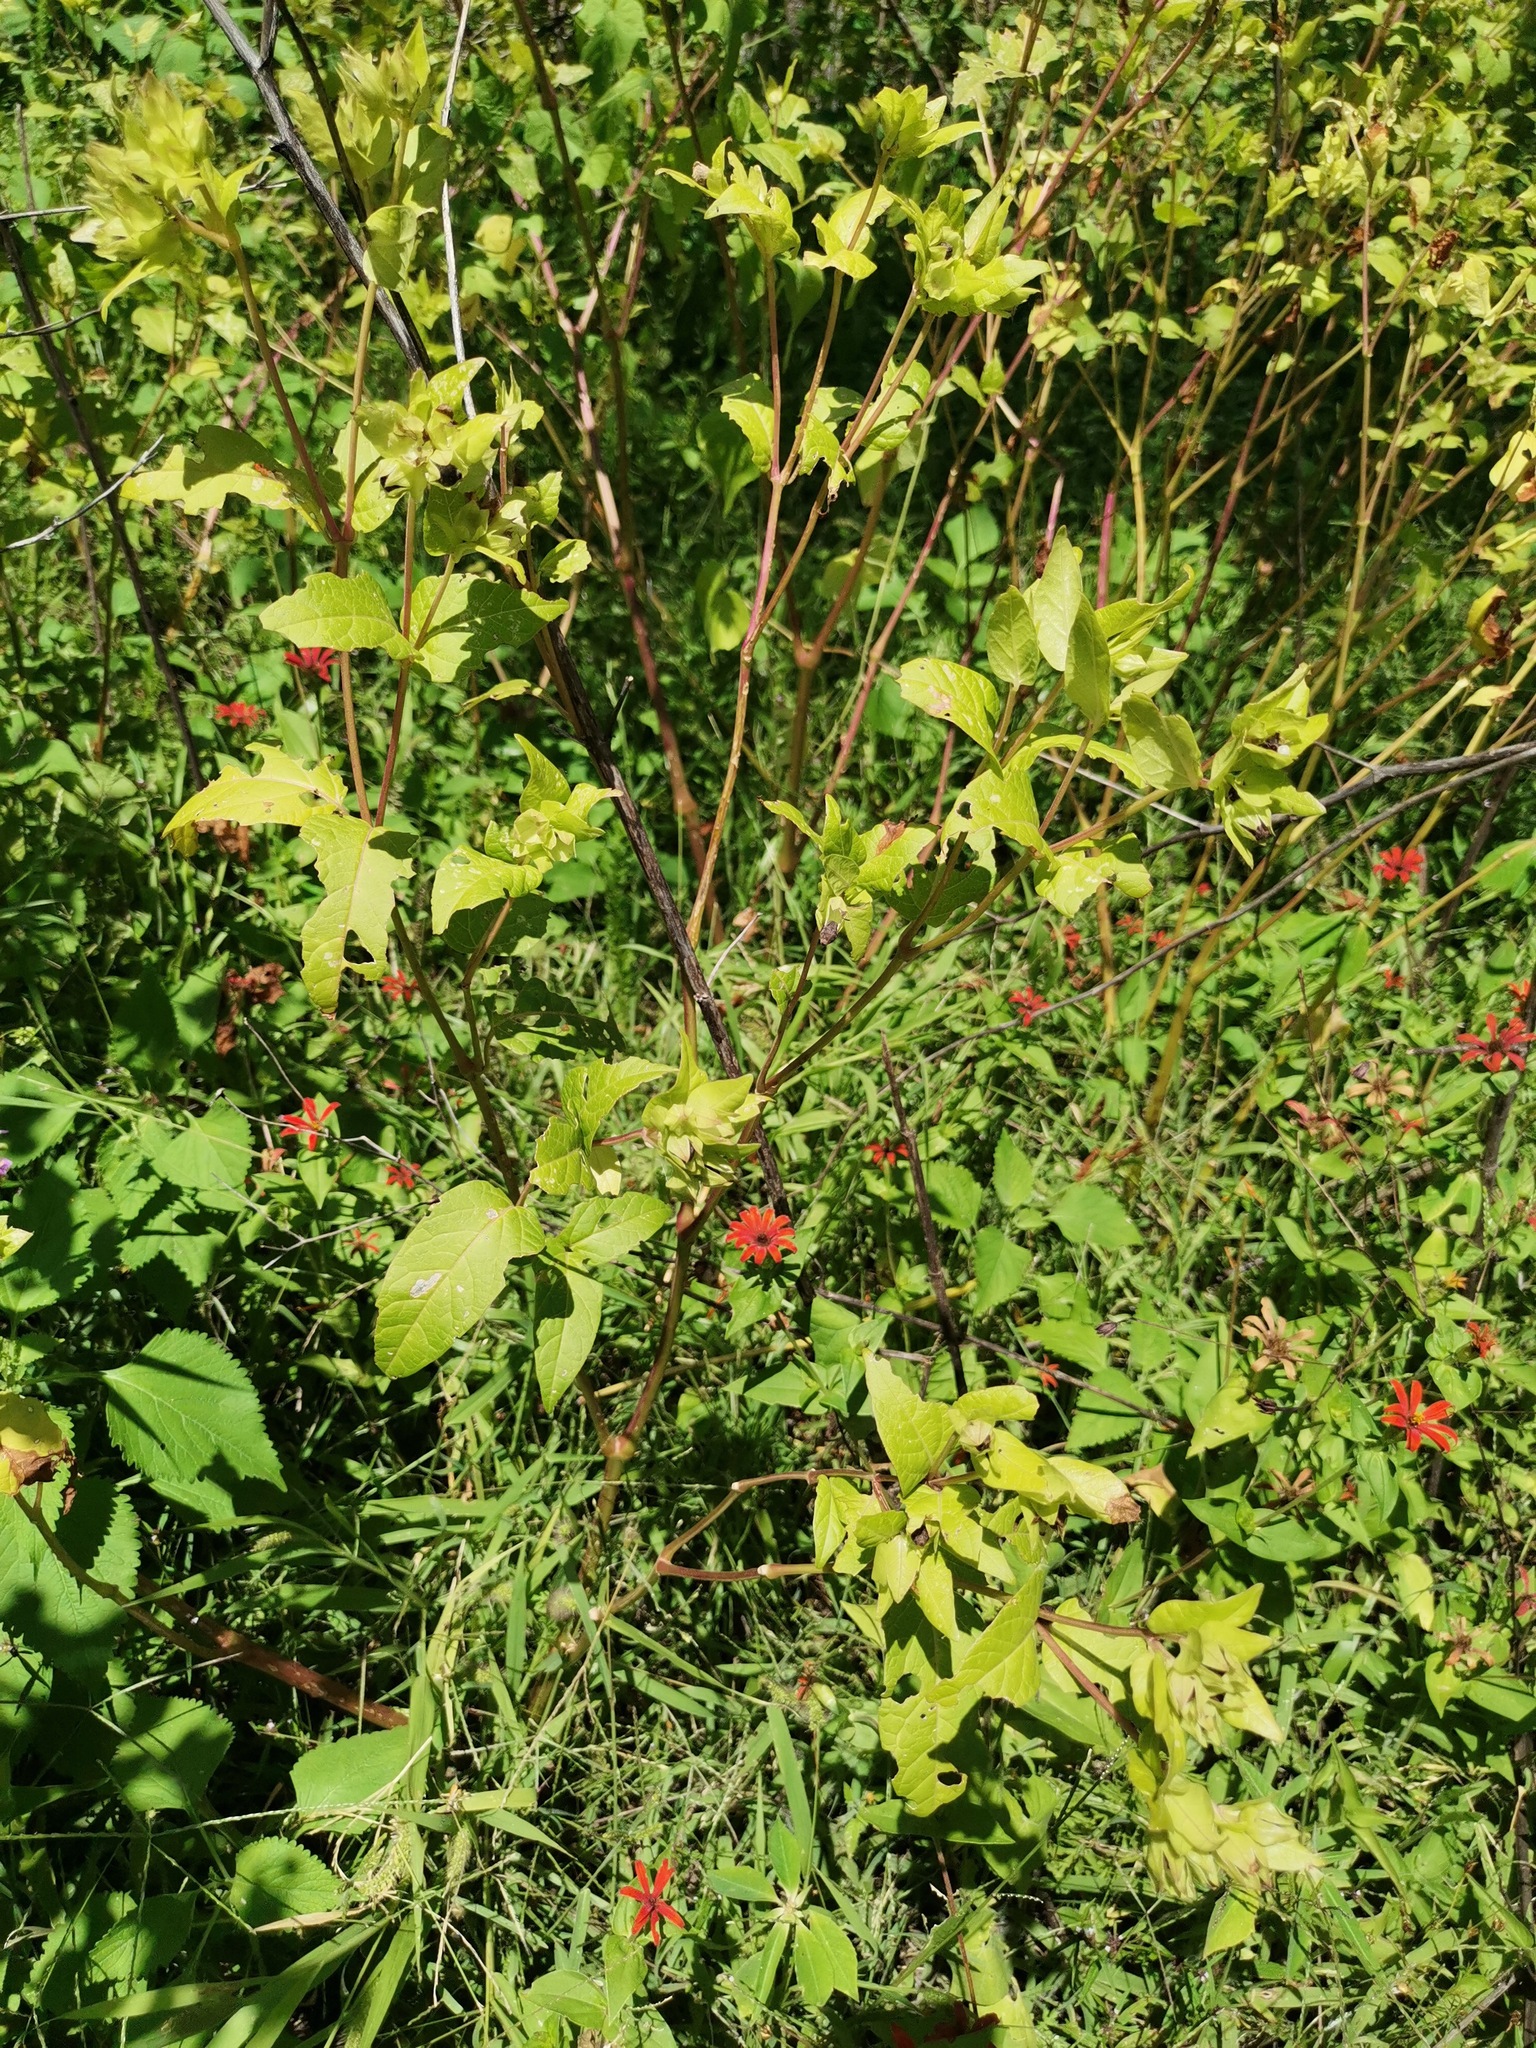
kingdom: Plantae
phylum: Tracheophyta
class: Magnoliopsida
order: Caryophyllales
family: Nyctaginaceae
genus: Mirabilis
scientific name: Mirabilis jalapa
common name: Marvel-of-peru
